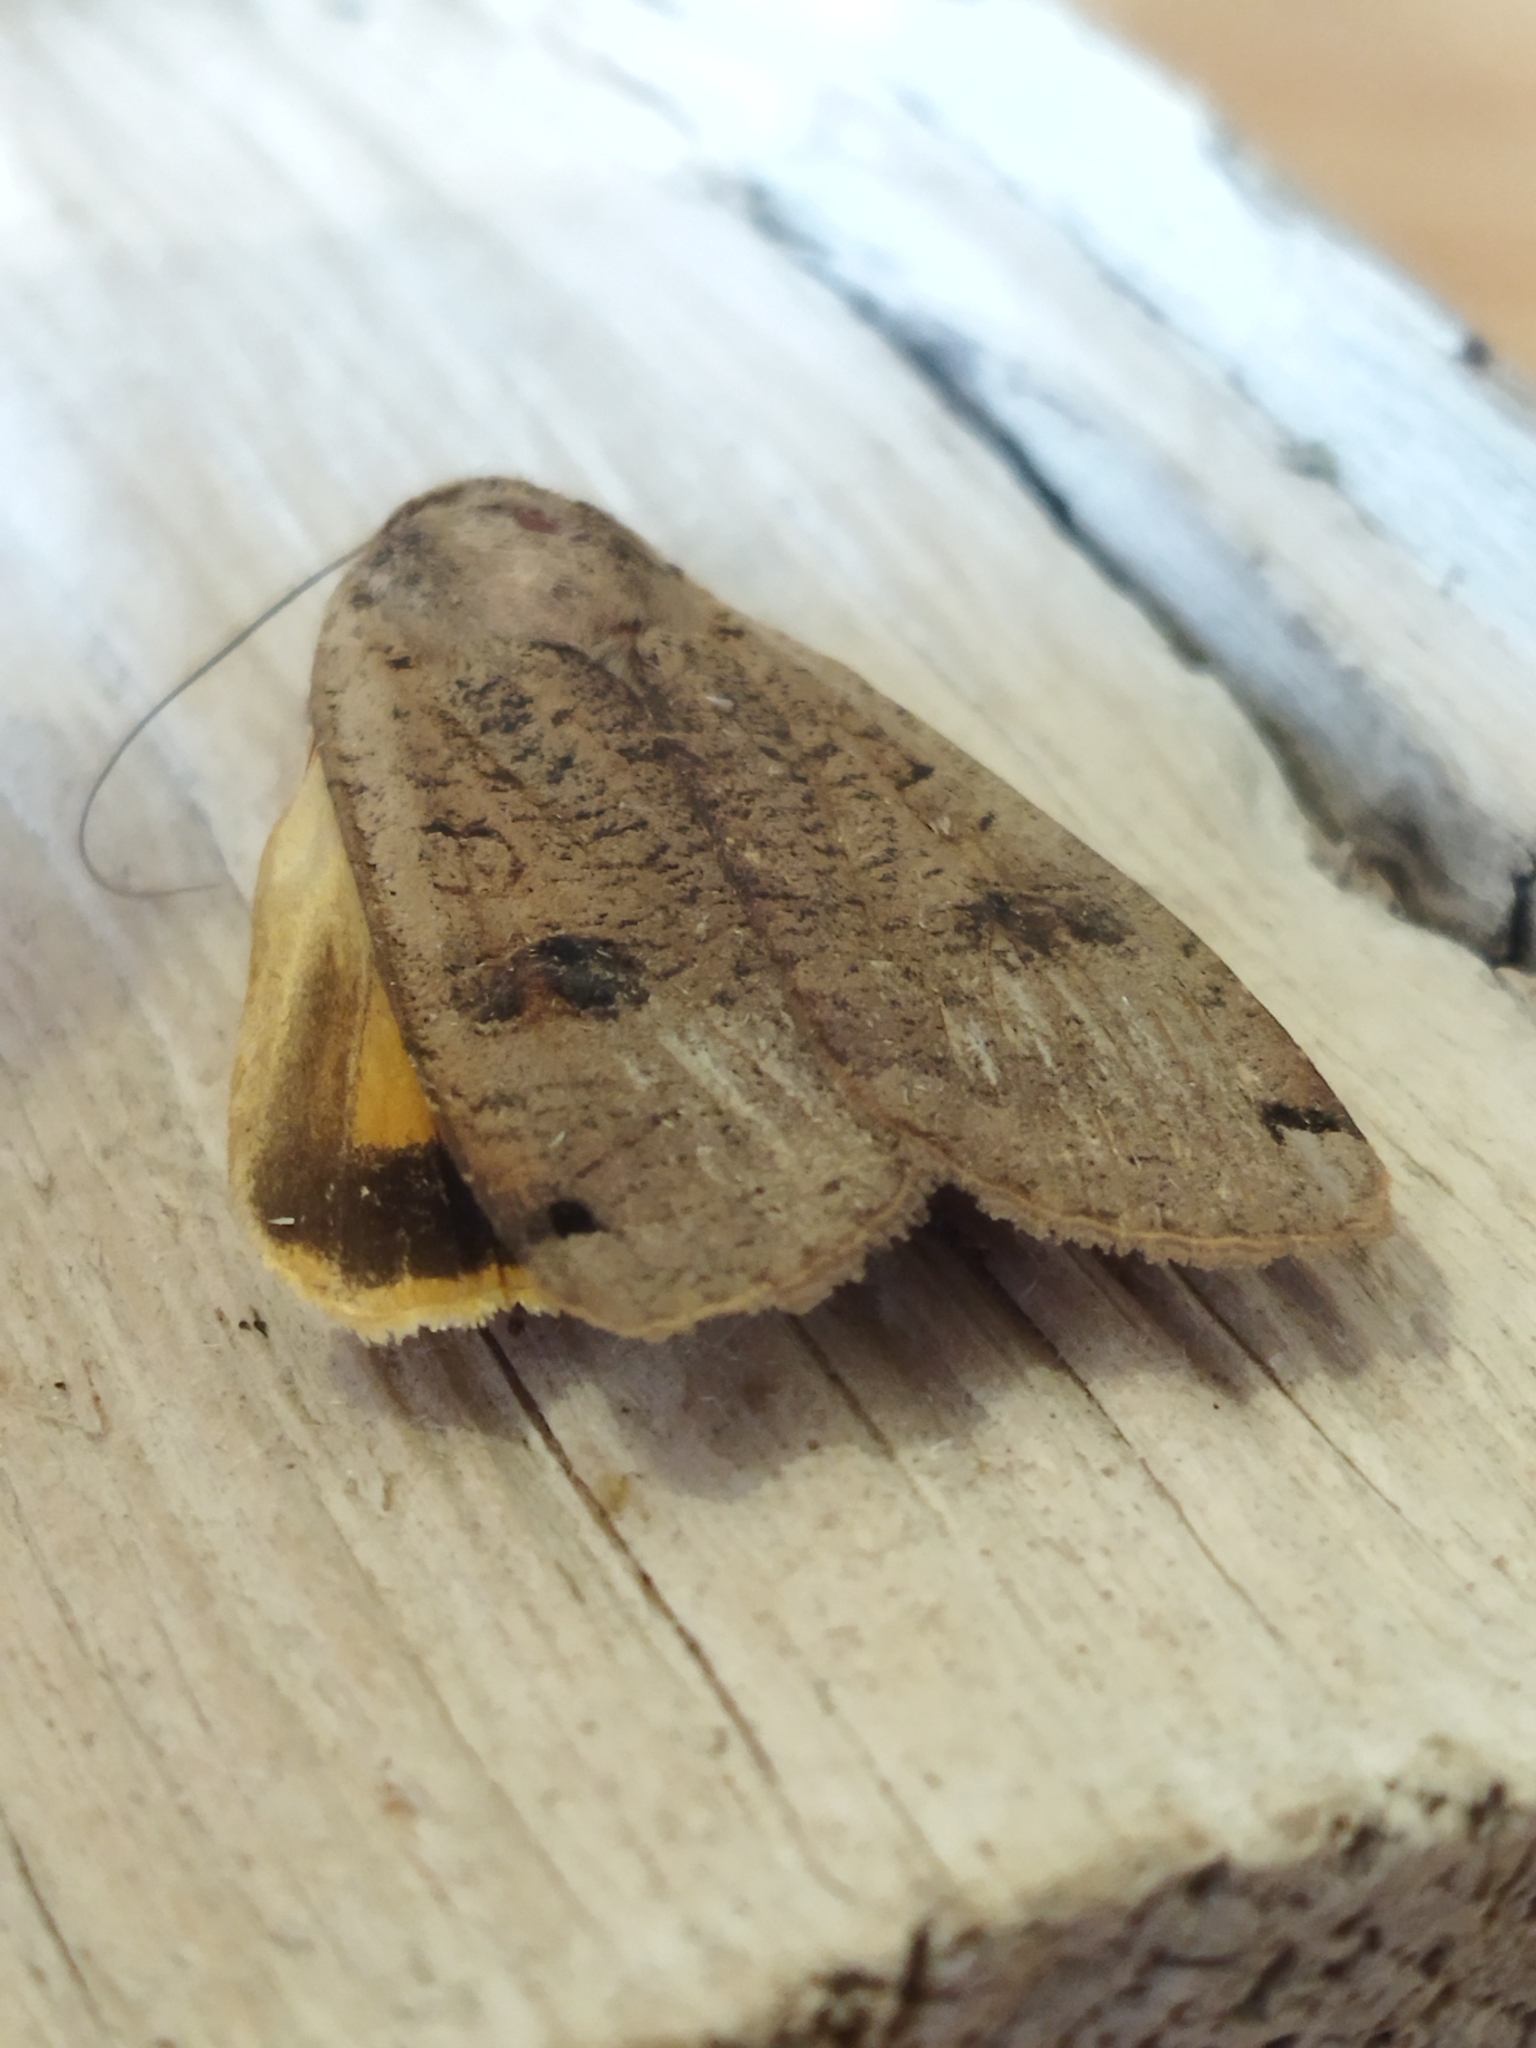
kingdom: Animalia
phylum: Arthropoda
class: Insecta
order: Lepidoptera
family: Noctuidae
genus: Noctua
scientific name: Noctua pronuba
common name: Large yellow underwing
